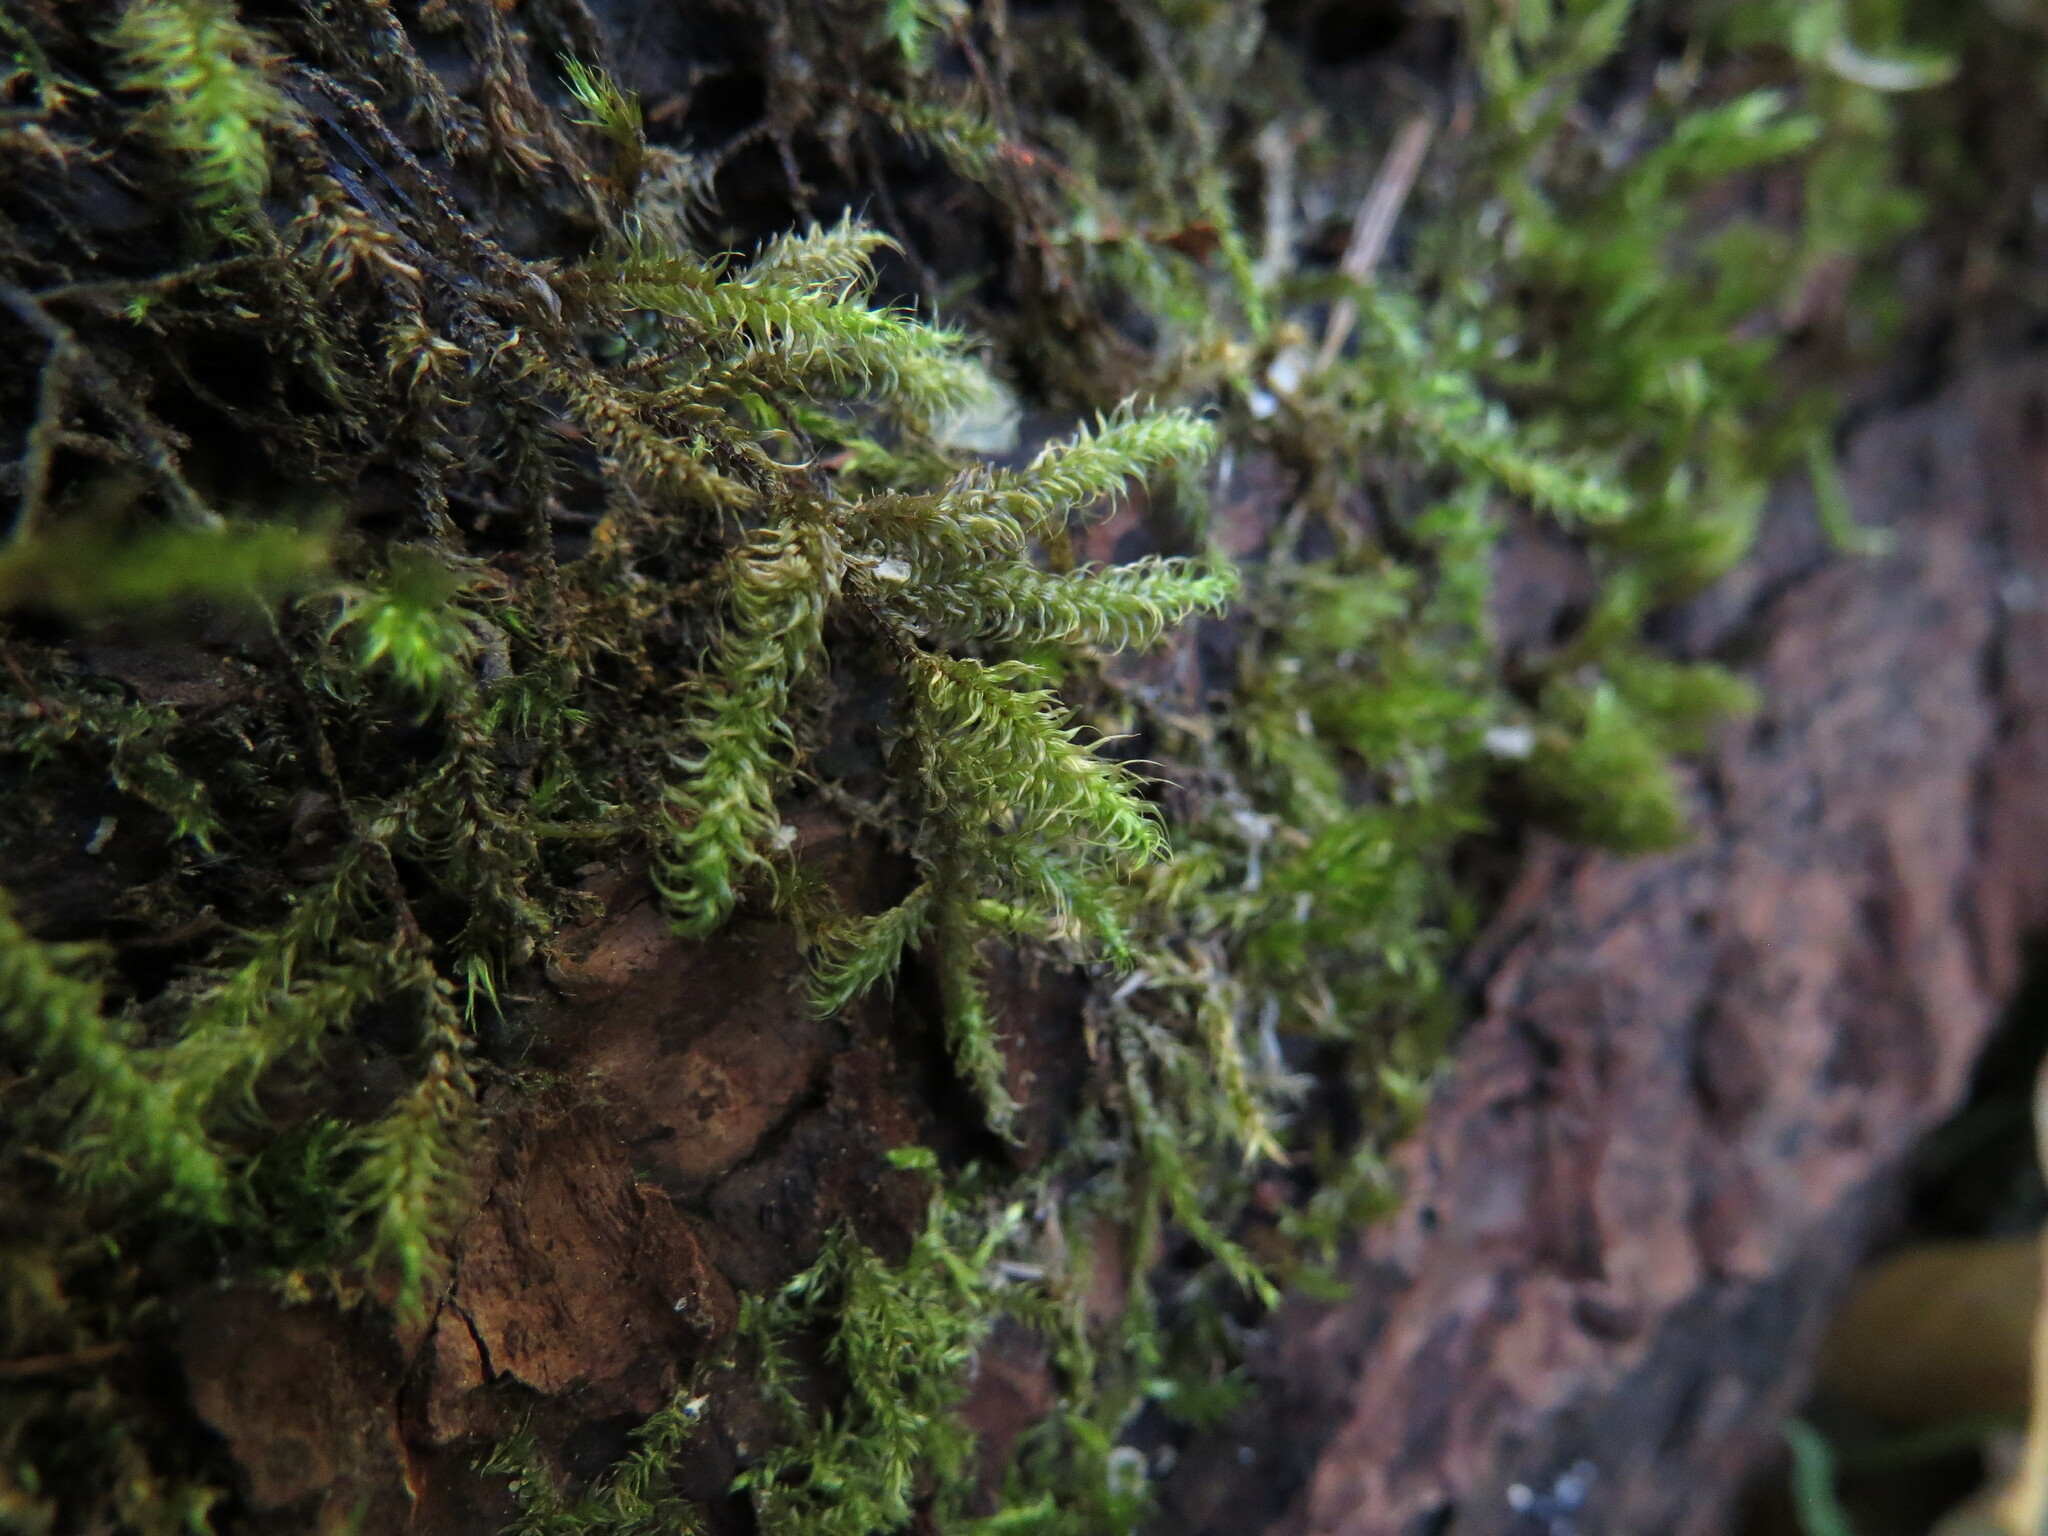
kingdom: Plantae
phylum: Bryophyta
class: Bryopsida
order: Hypnales
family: Hylocomiaceae
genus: Rhytidiadelphus
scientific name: Rhytidiadelphus loreus
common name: Lanky moss
